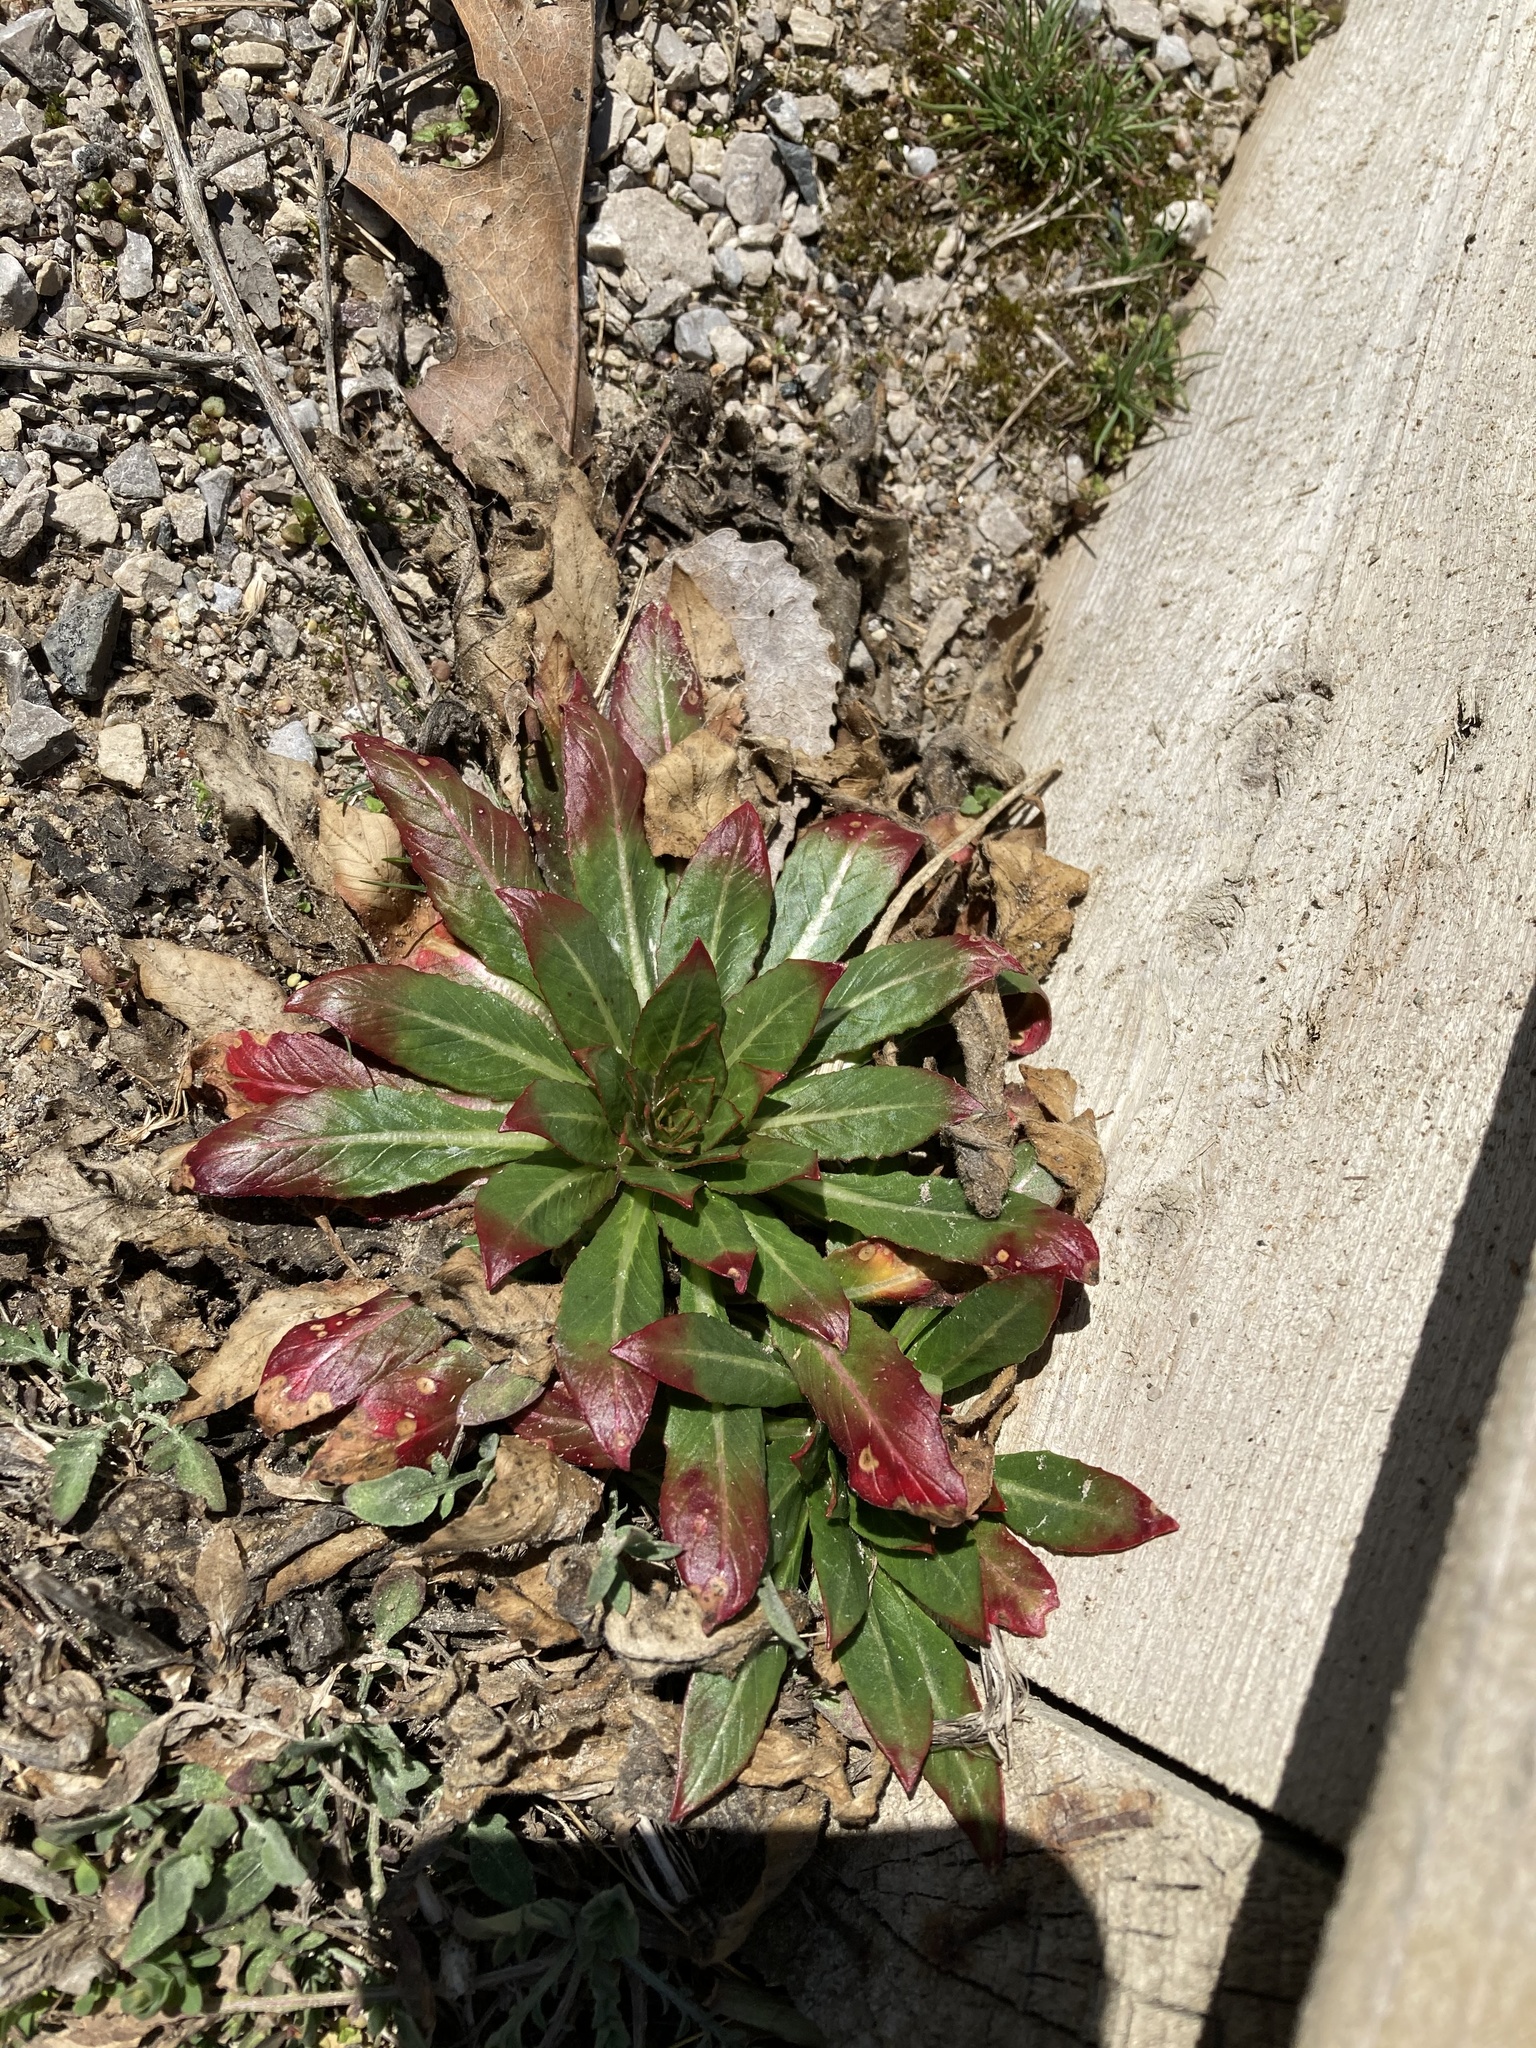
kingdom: Plantae
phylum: Tracheophyta
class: Magnoliopsida
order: Myrtales
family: Onagraceae
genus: Oenothera
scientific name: Oenothera biennis
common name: Common evening-primrose
